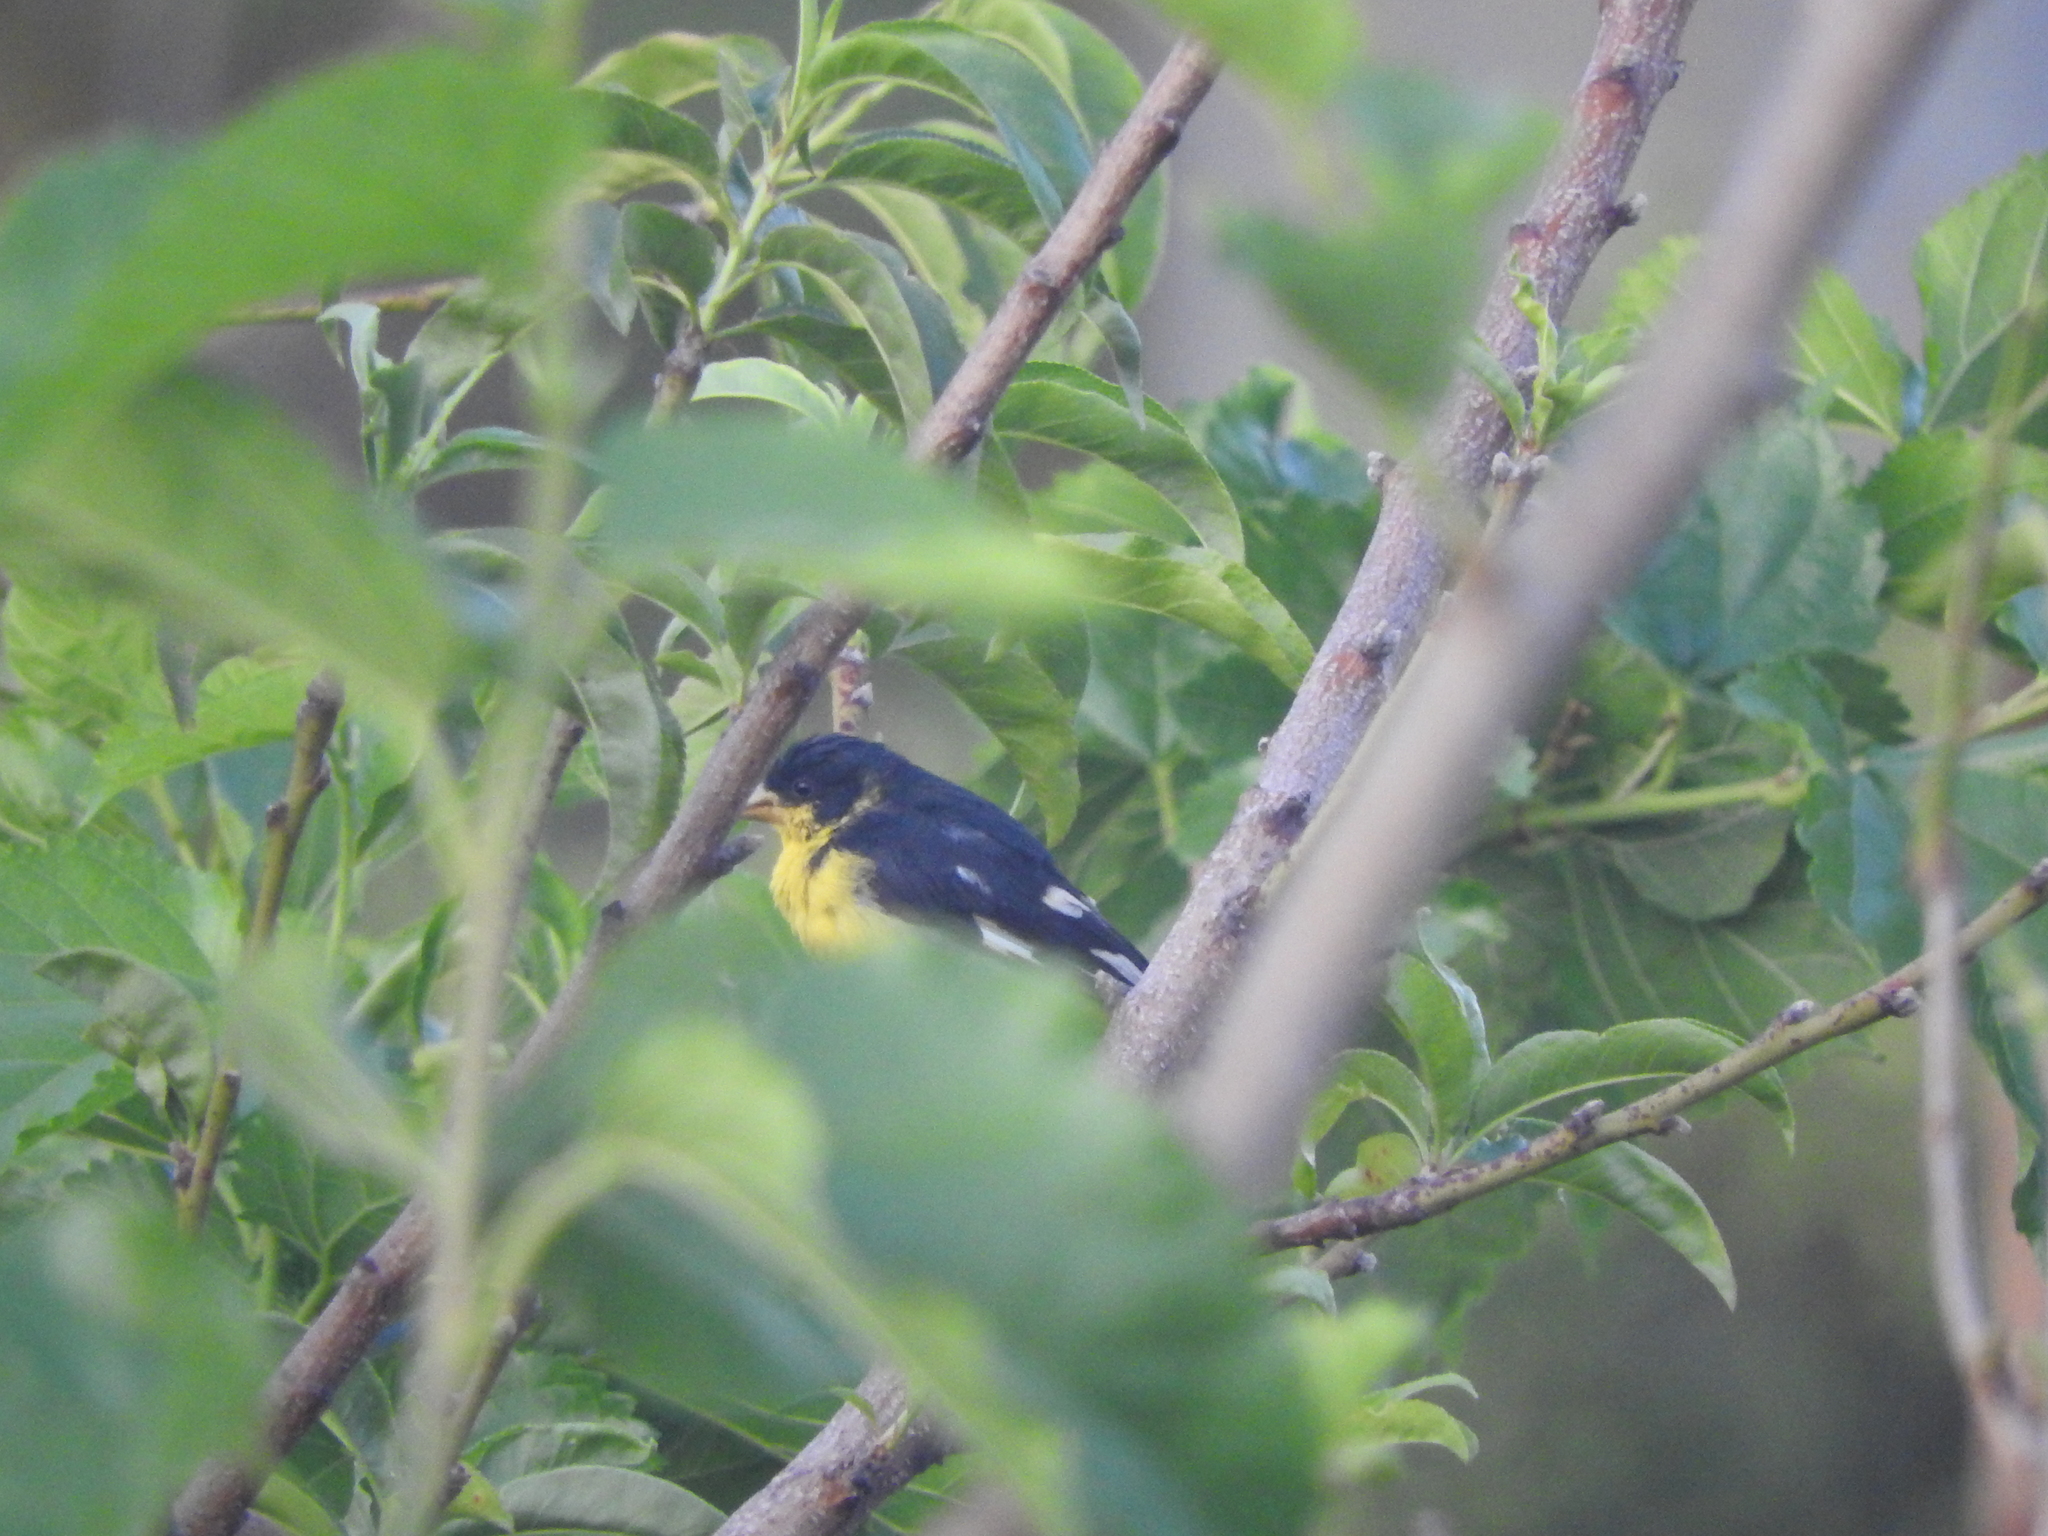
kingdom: Animalia
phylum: Chordata
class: Aves
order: Passeriformes
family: Fringillidae
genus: Spinus
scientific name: Spinus psaltria
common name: Lesser goldfinch
